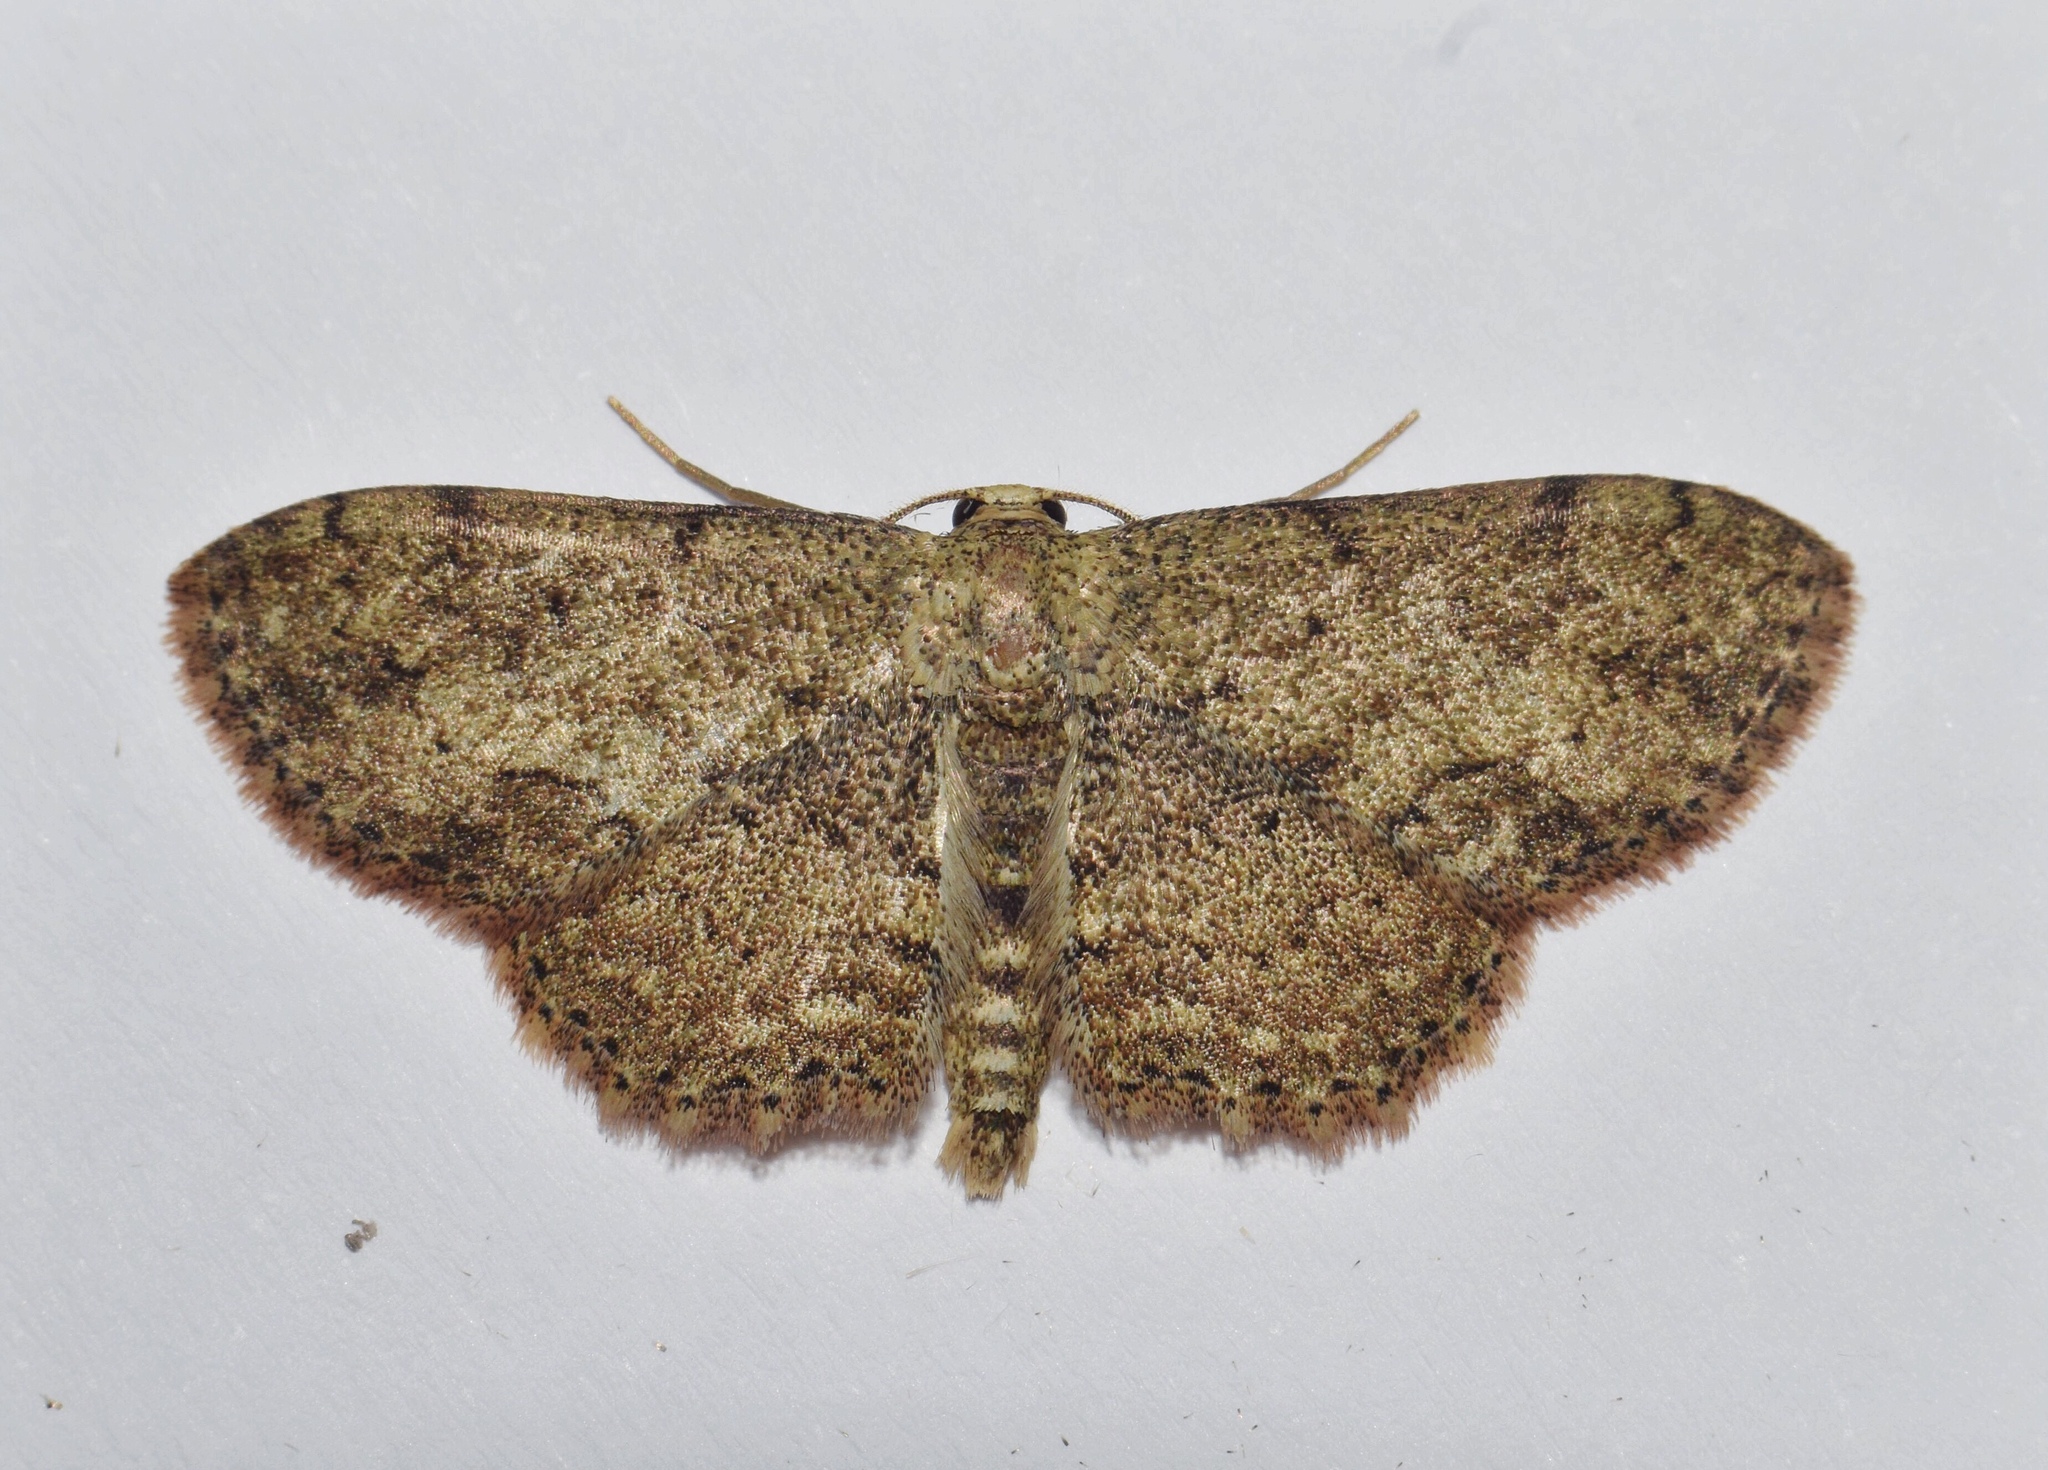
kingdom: Animalia
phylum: Arthropoda
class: Insecta
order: Lepidoptera
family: Geometridae
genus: Scopula
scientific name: Scopula accentuata
